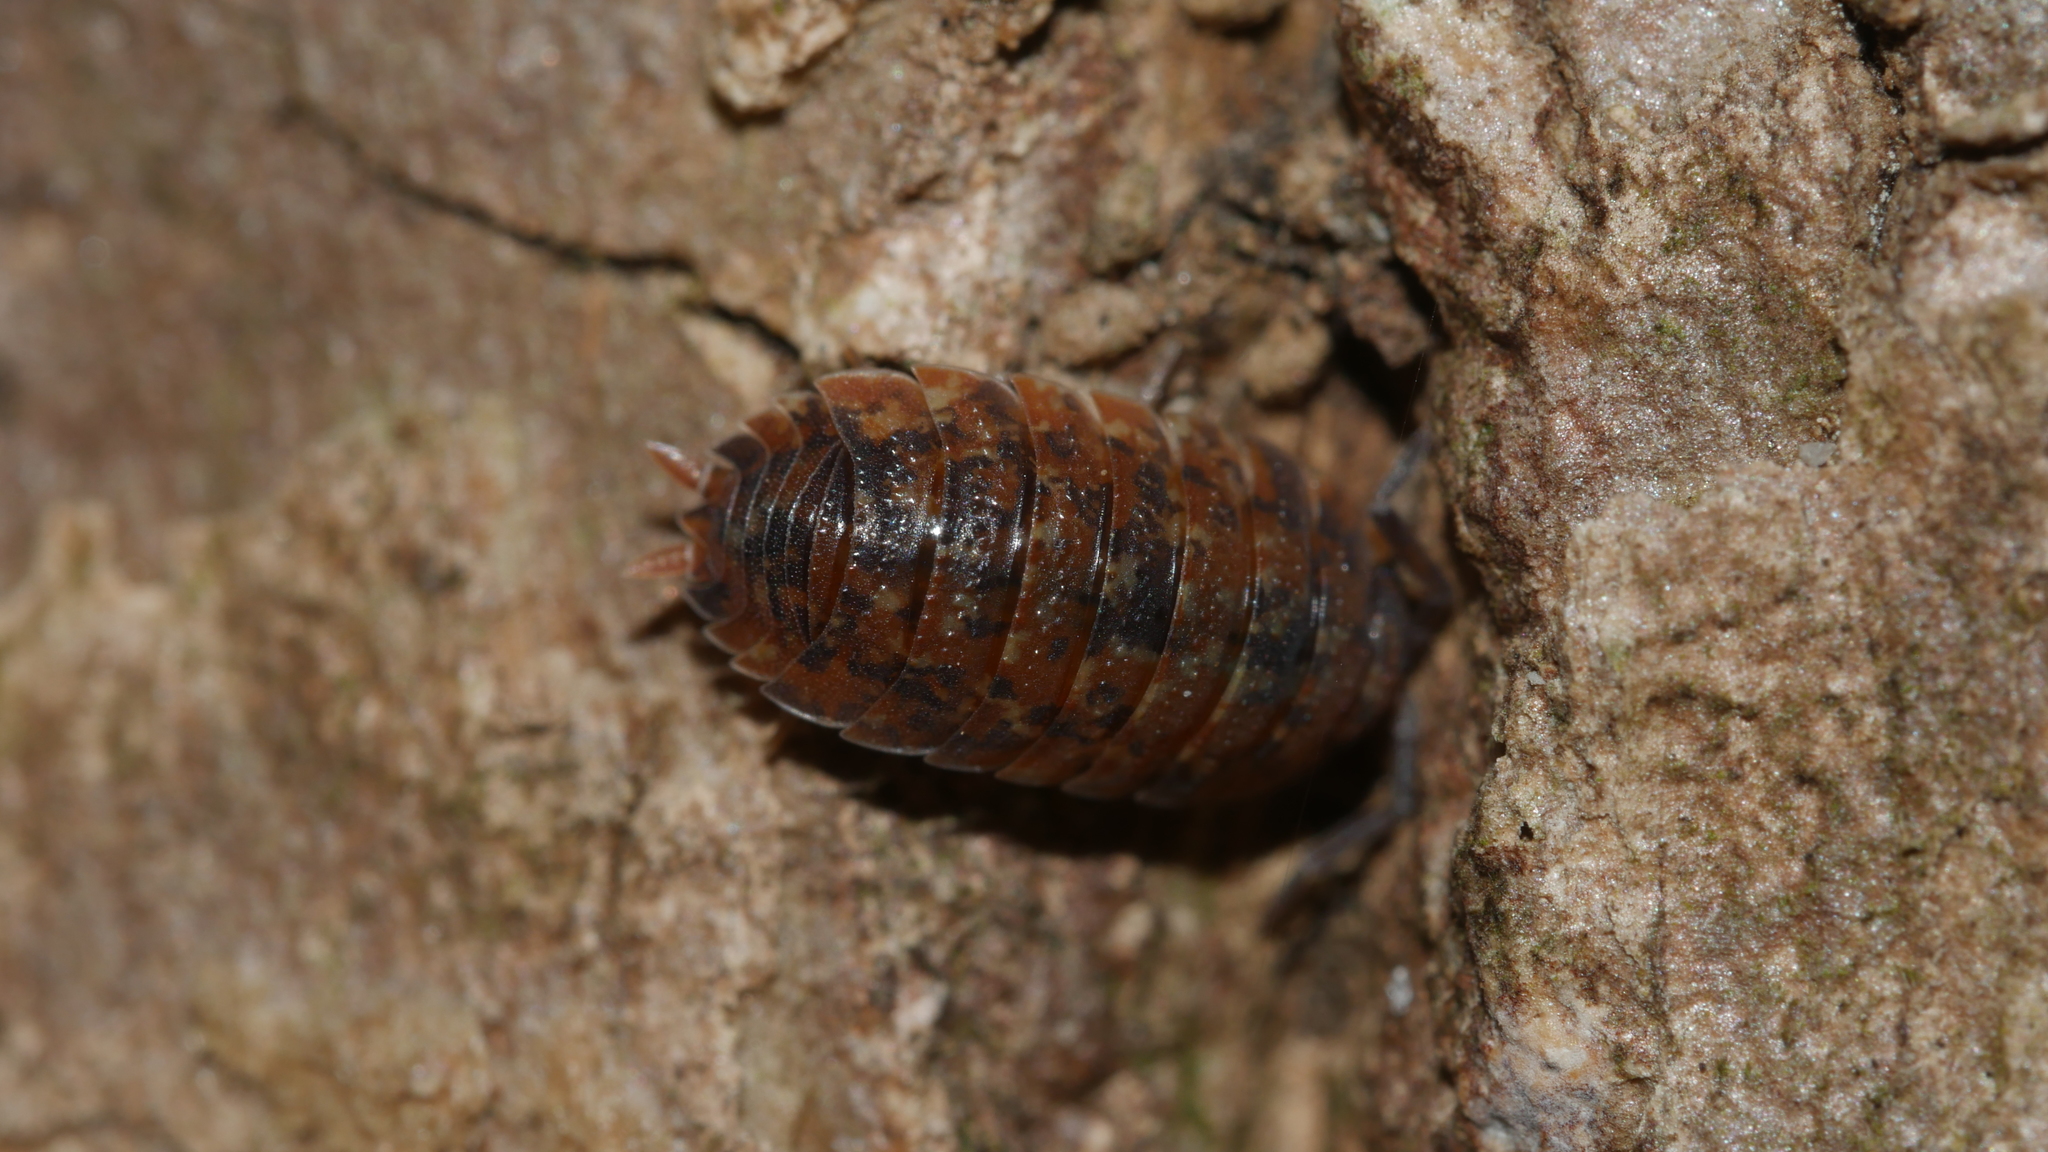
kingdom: Animalia
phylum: Arthropoda
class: Malacostraca
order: Isopoda
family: Porcellionidae
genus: Porcellio
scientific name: Porcellio scaber
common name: Common rough woodlouse
